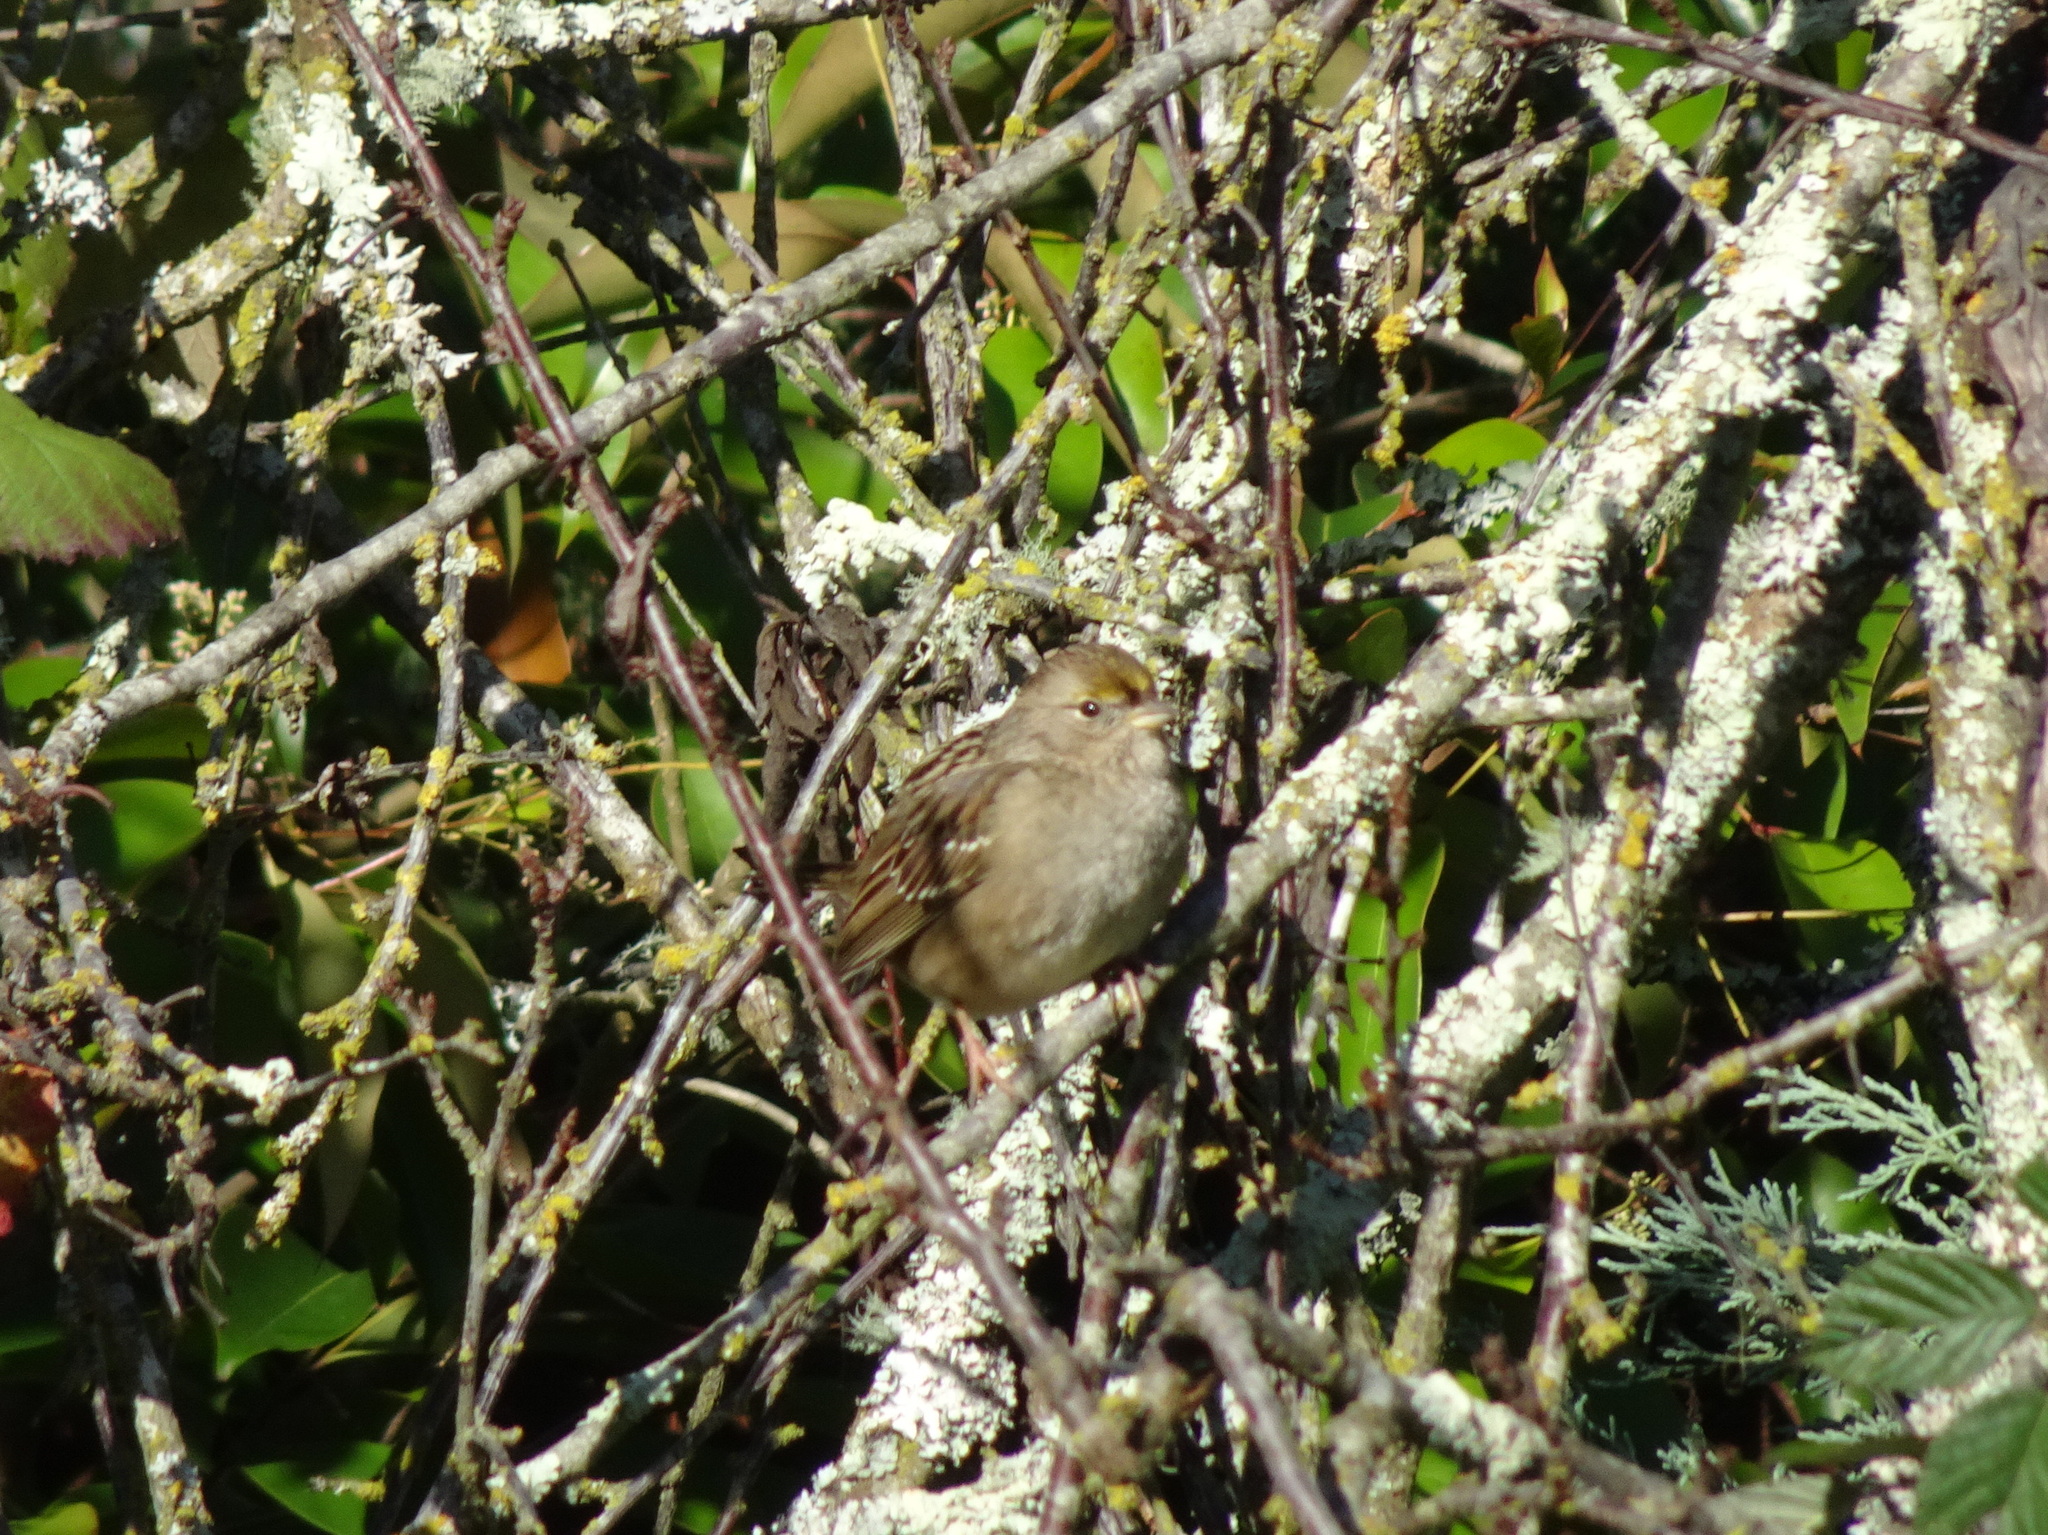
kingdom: Animalia
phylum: Chordata
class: Aves
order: Passeriformes
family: Passerellidae
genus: Zonotrichia
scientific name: Zonotrichia atricapilla
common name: Golden-crowned sparrow
